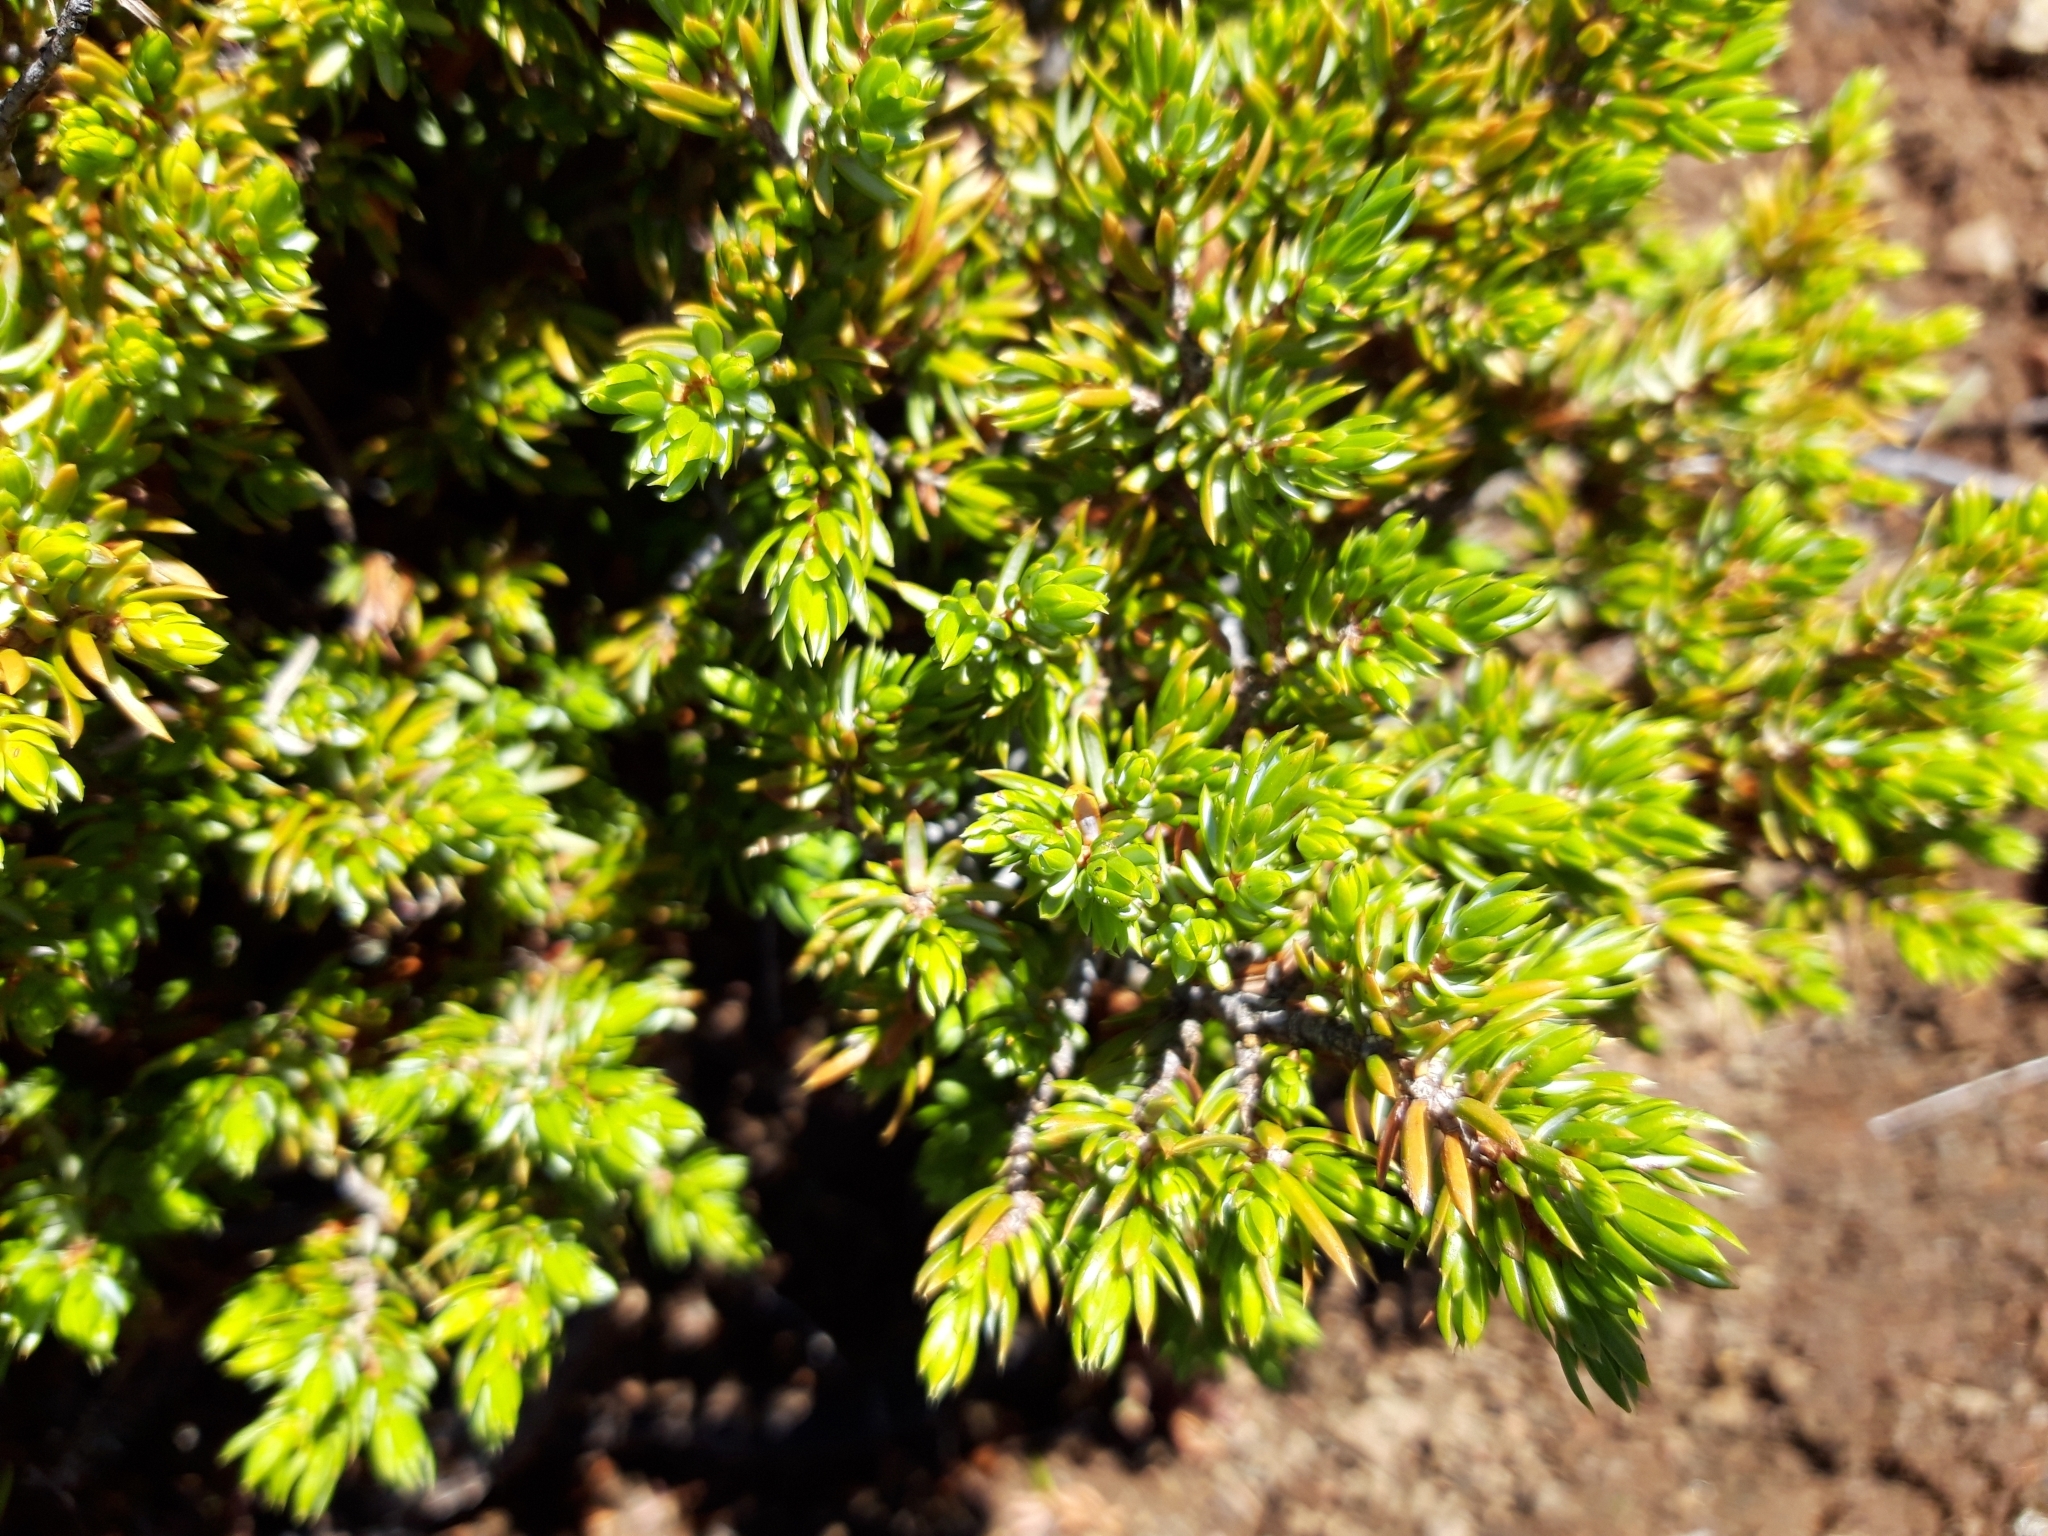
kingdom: Plantae
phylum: Tracheophyta
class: Pinopsida
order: Pinales
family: Cupressaceae
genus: Juniperus
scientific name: Juniperus communis
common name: Common juniper
